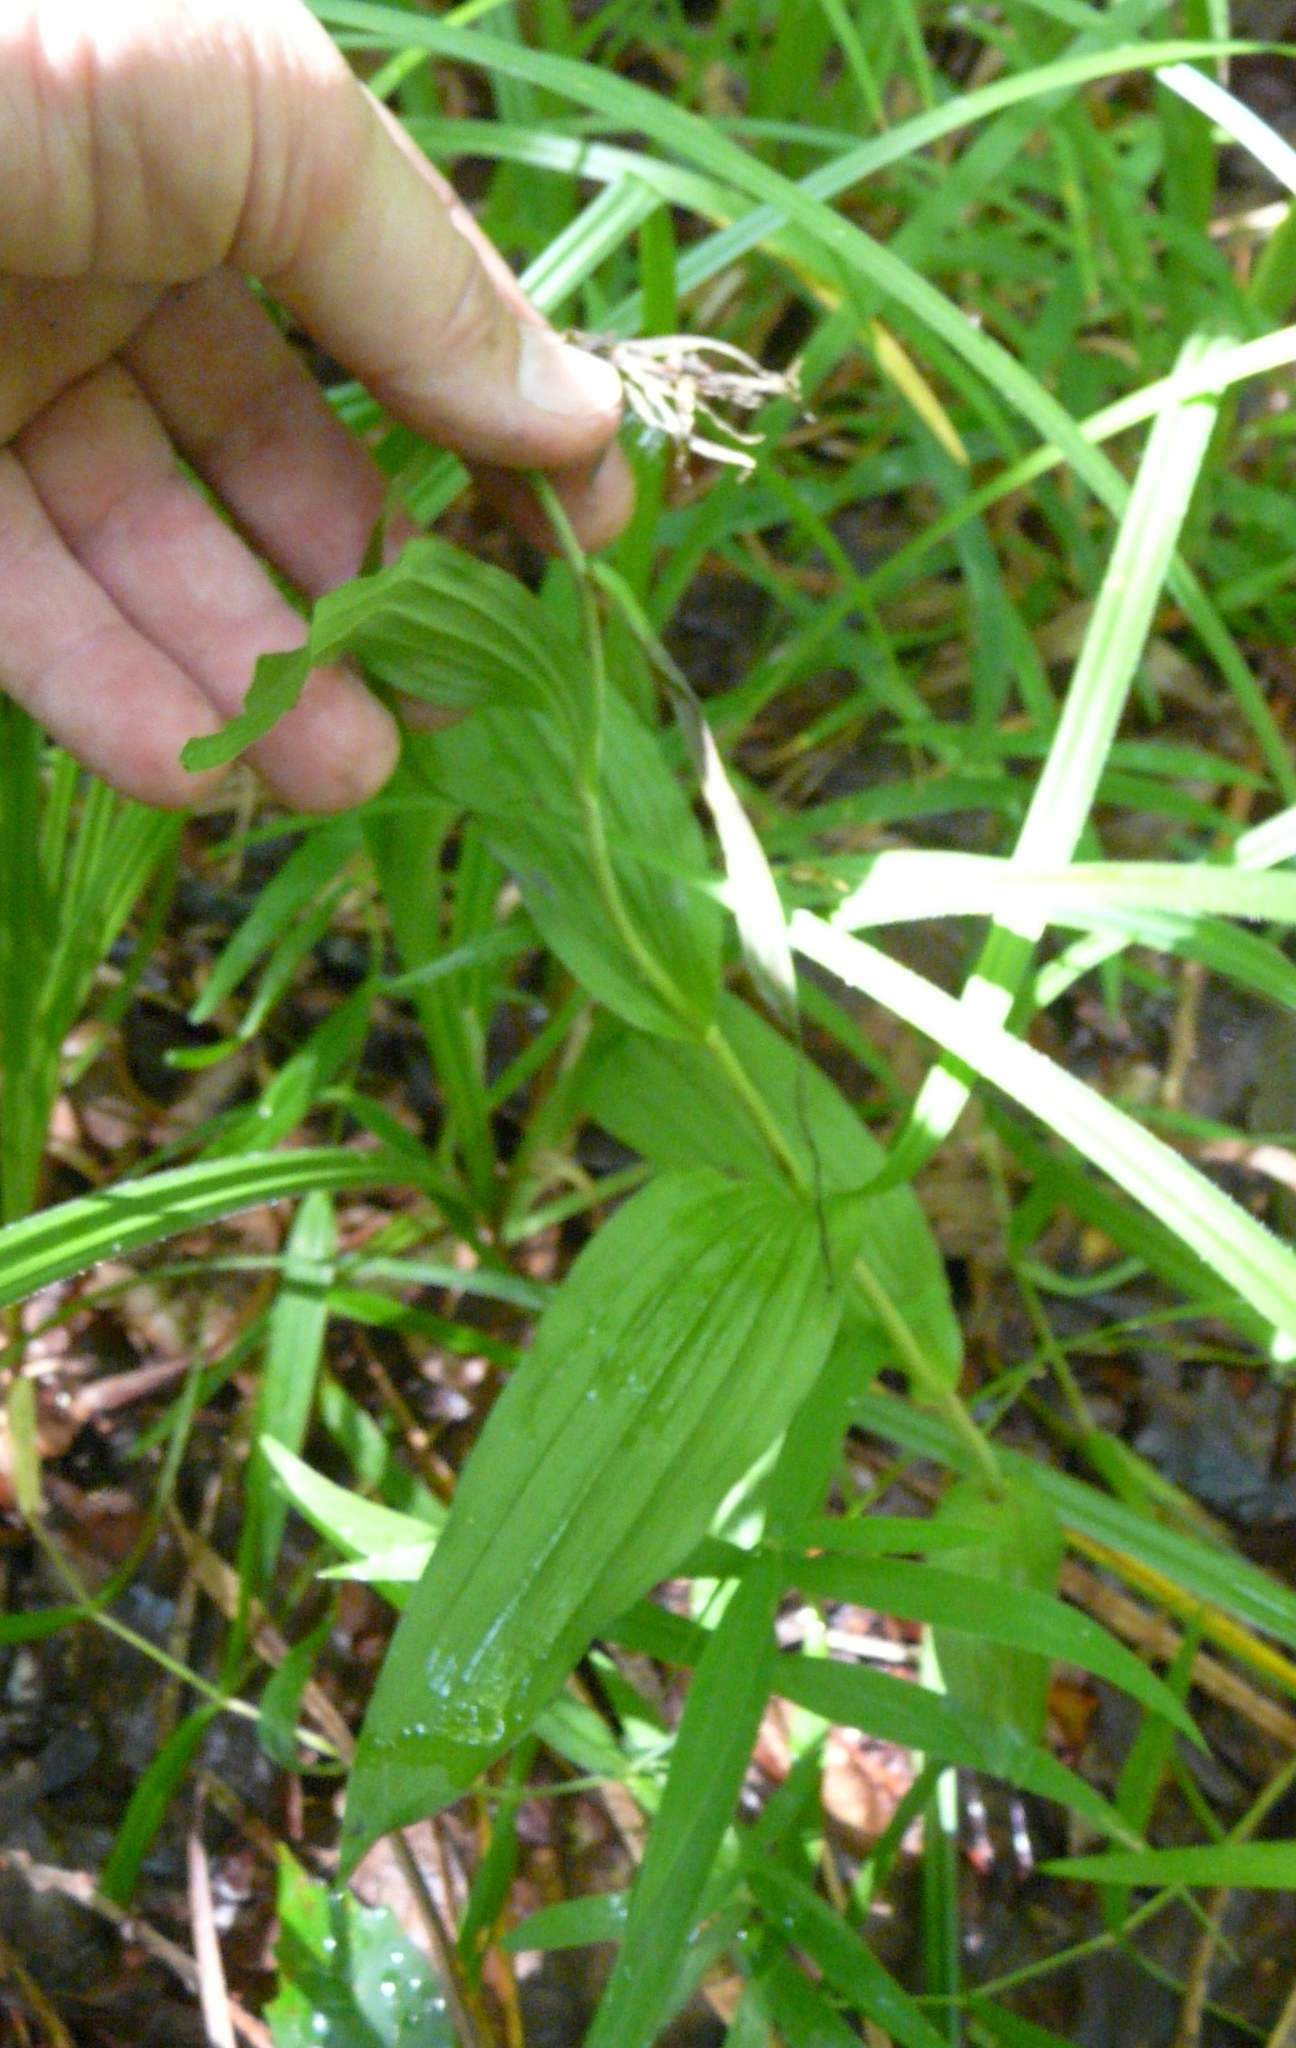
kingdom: Plantae
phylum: Tracheophyta
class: Liliopsida
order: Asparagales
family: Orchidaceae
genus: Epipactis
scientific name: Epipactis helleborine
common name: Broad-leaved helleborine
